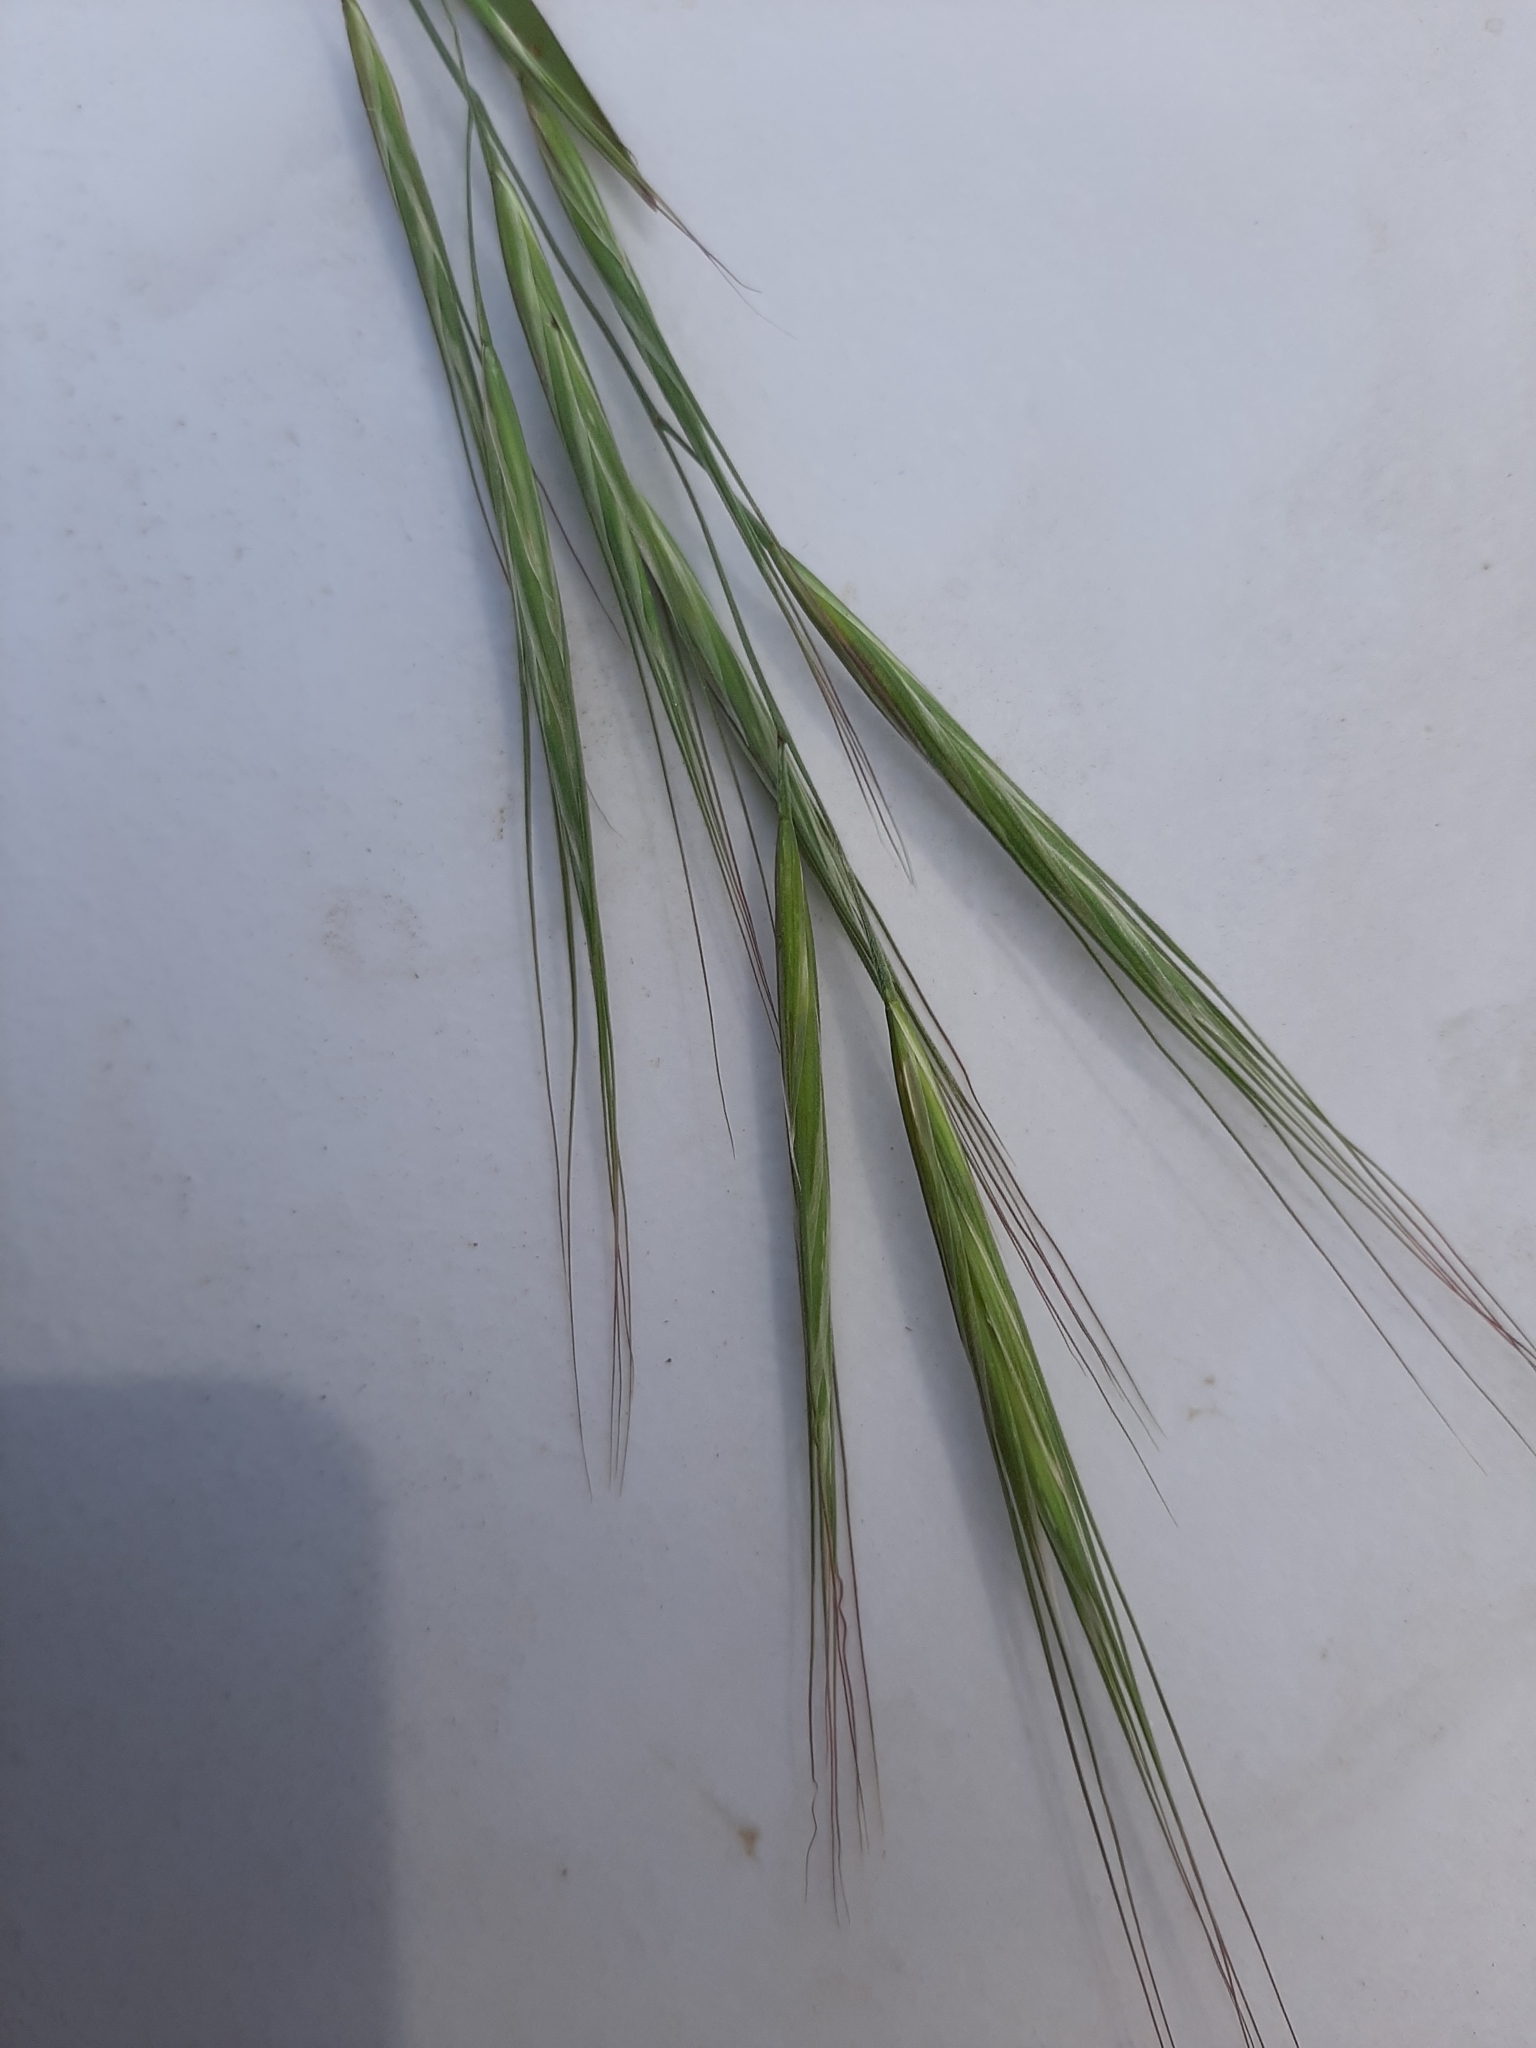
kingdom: Plantae
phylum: Tracheophyta
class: Liliopsida
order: Poales
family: Poaceae
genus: Bromus
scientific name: Bromus diandrus
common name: Ripgut brome
